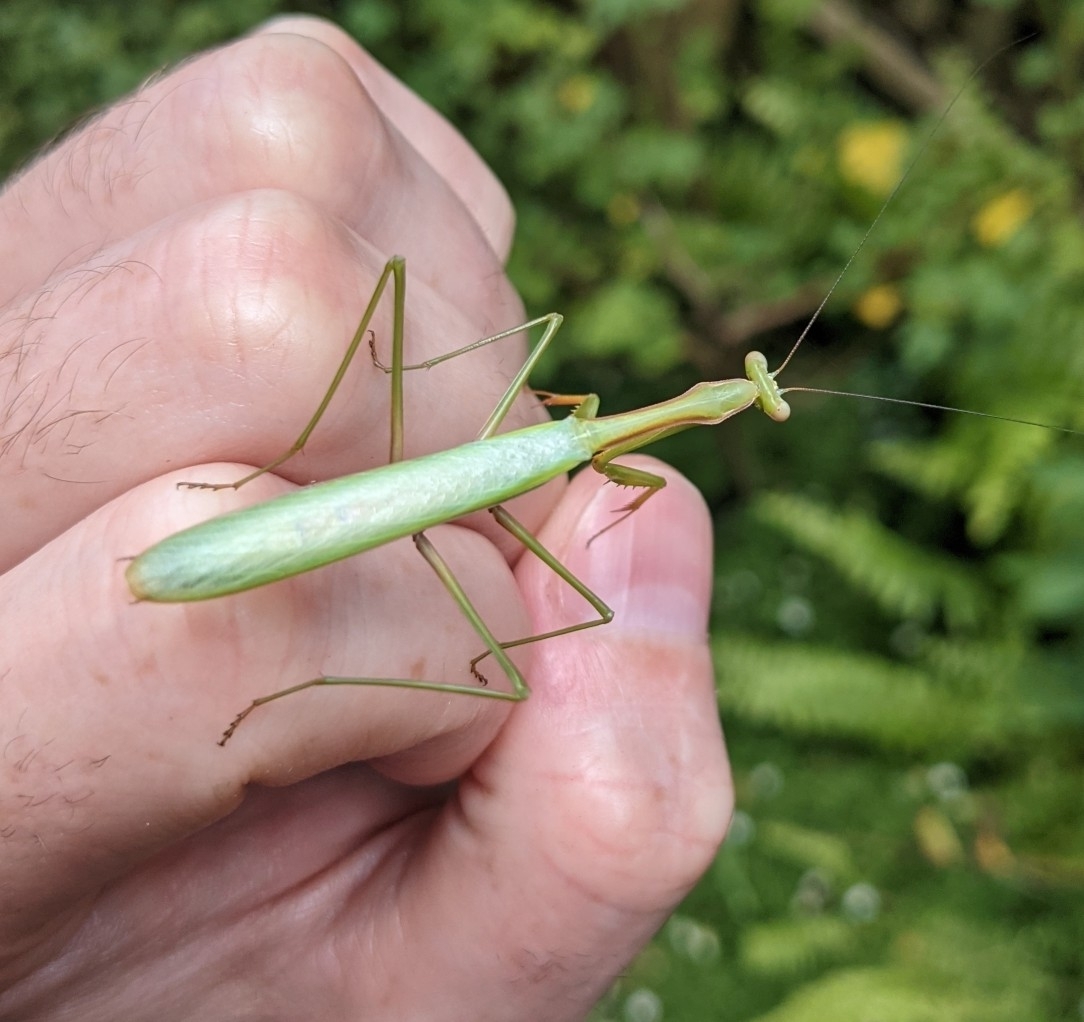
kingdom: Animalia
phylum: Arthropoda
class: Insecta
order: Mantodea
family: Mantidae
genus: Pseudomantis
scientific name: Pseudomantis albofimbriata
